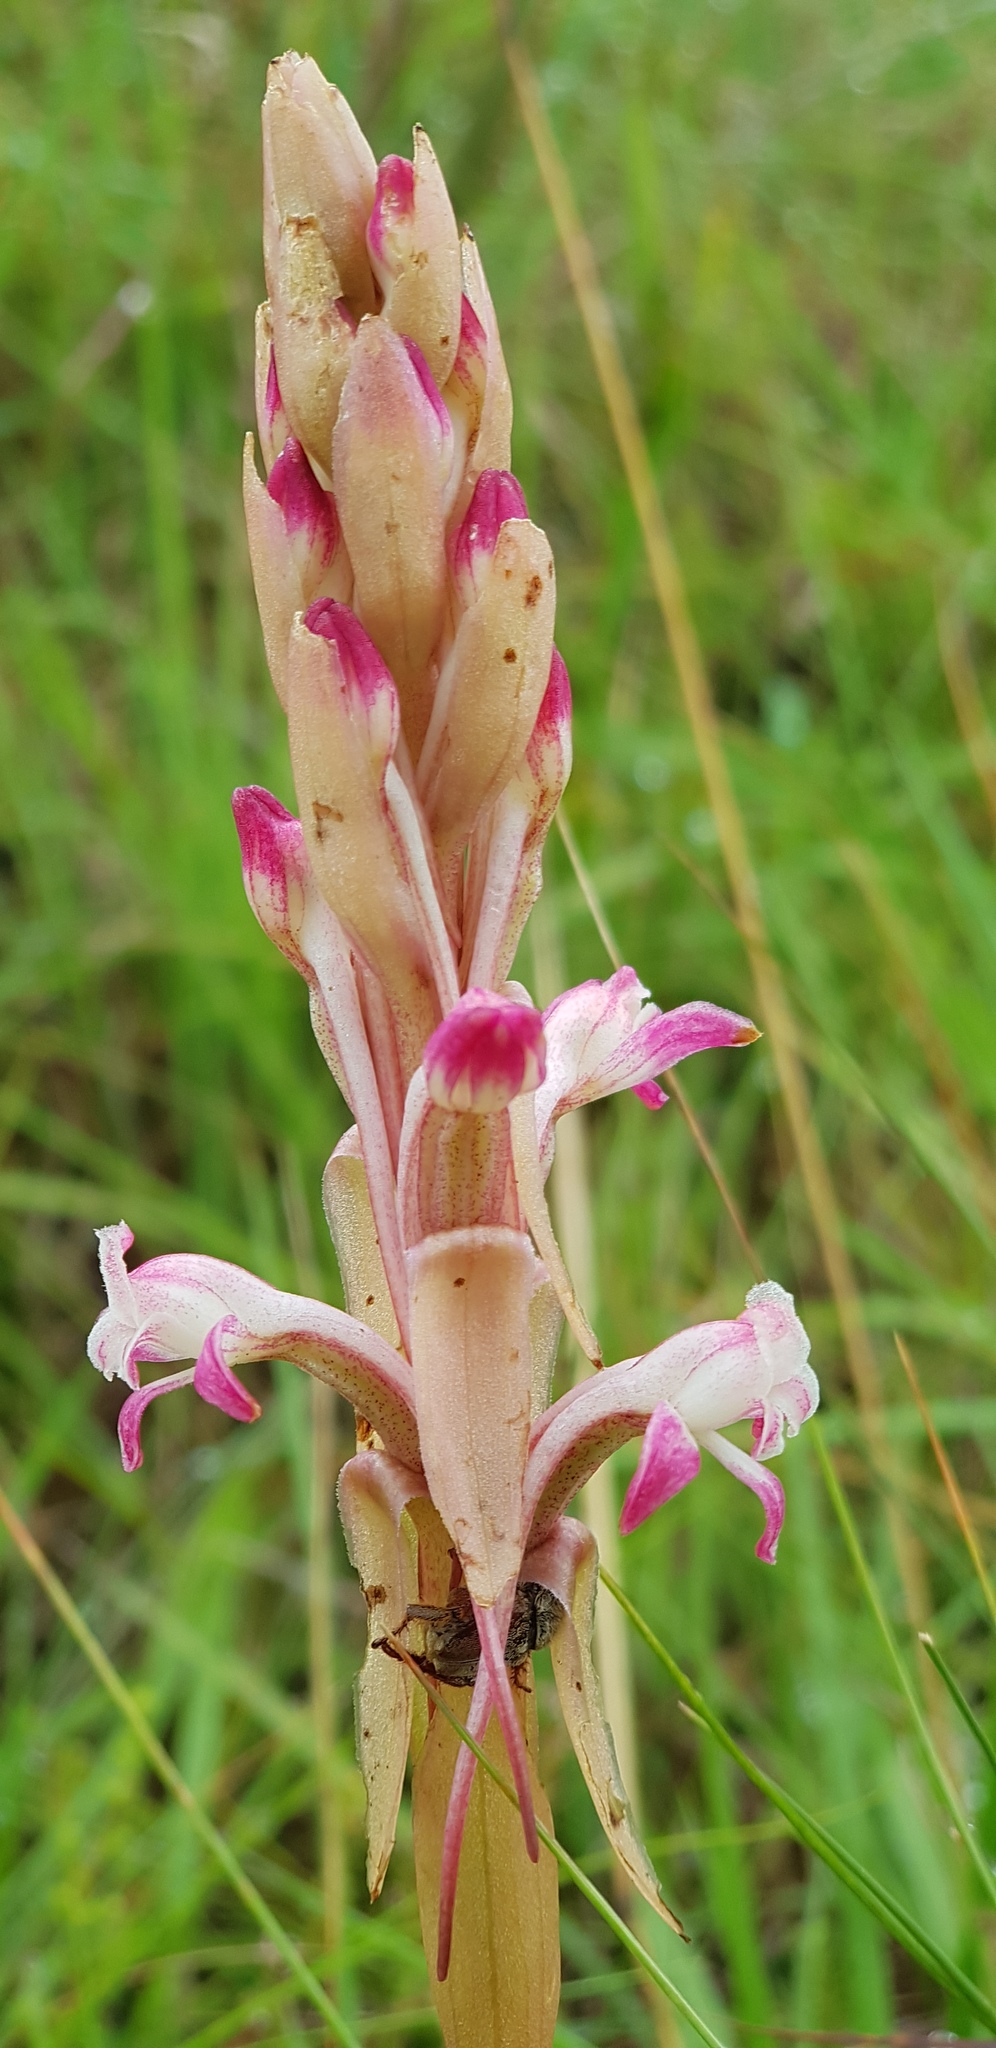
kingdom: Plantae
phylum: Tracheophyta
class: Liliopsida
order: Asparagales
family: Orchidaceae
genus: Satyrium
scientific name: Satyrium longicauda
